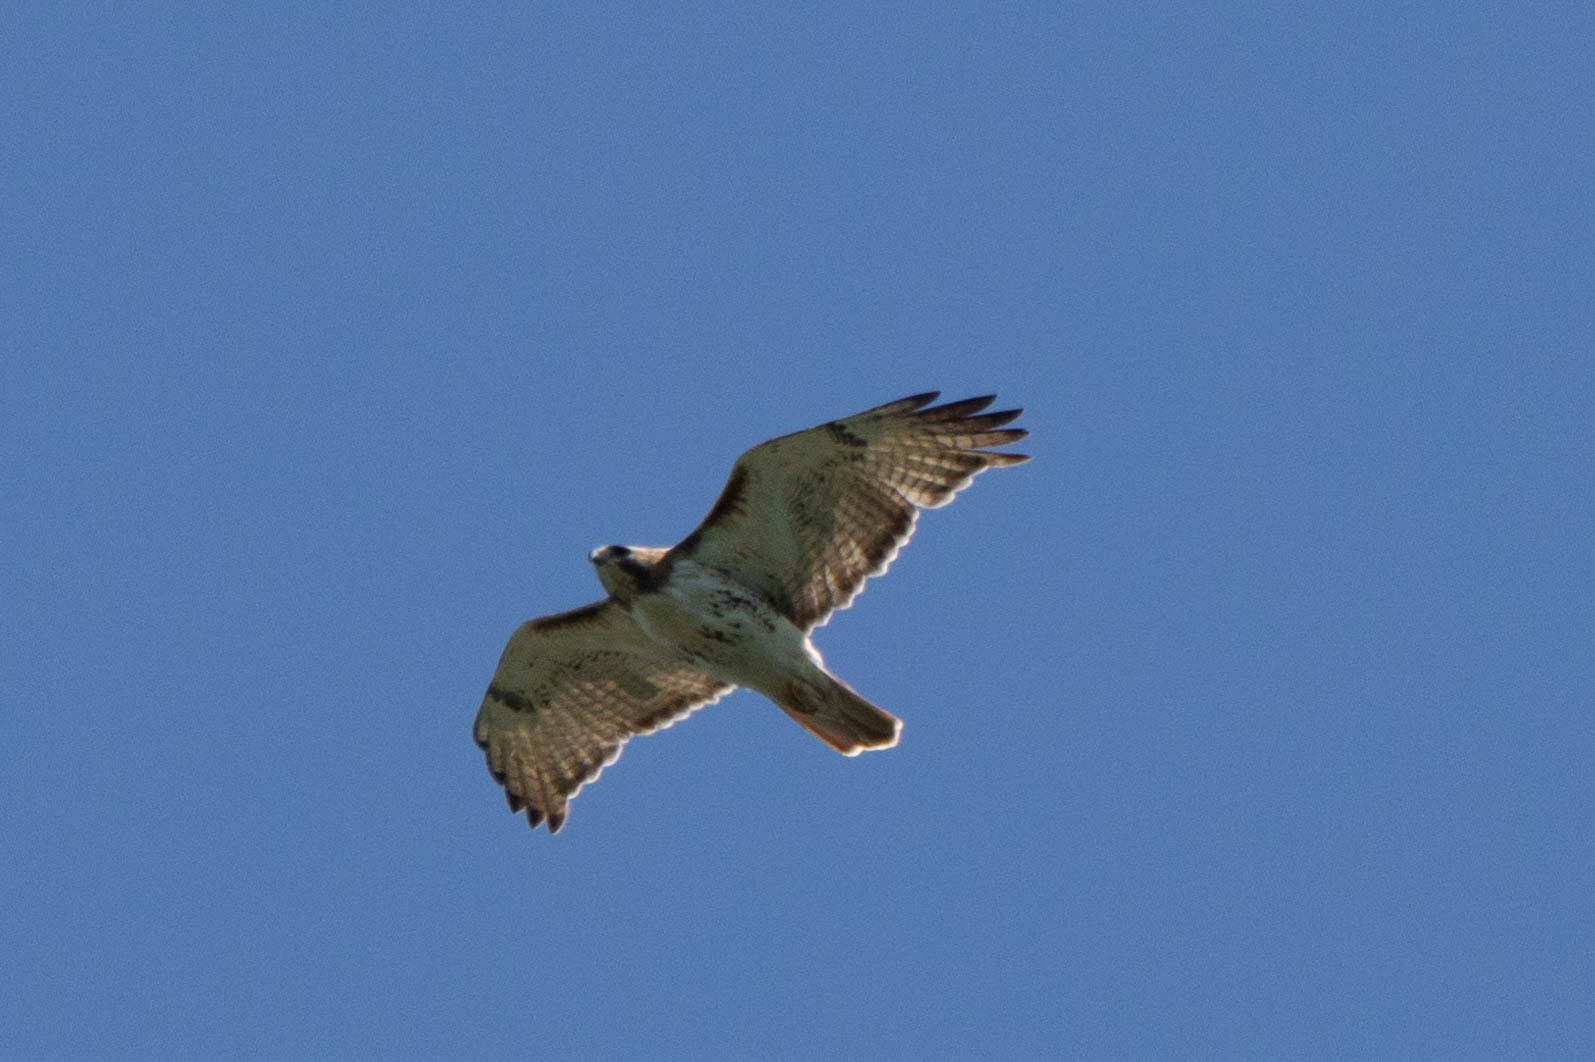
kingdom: Animalia
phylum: Chordata
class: Aves
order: Accipitriformes
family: Accipitridae
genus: Buteo
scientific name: Buteo jamaicensis
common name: Red-tailed hawk
